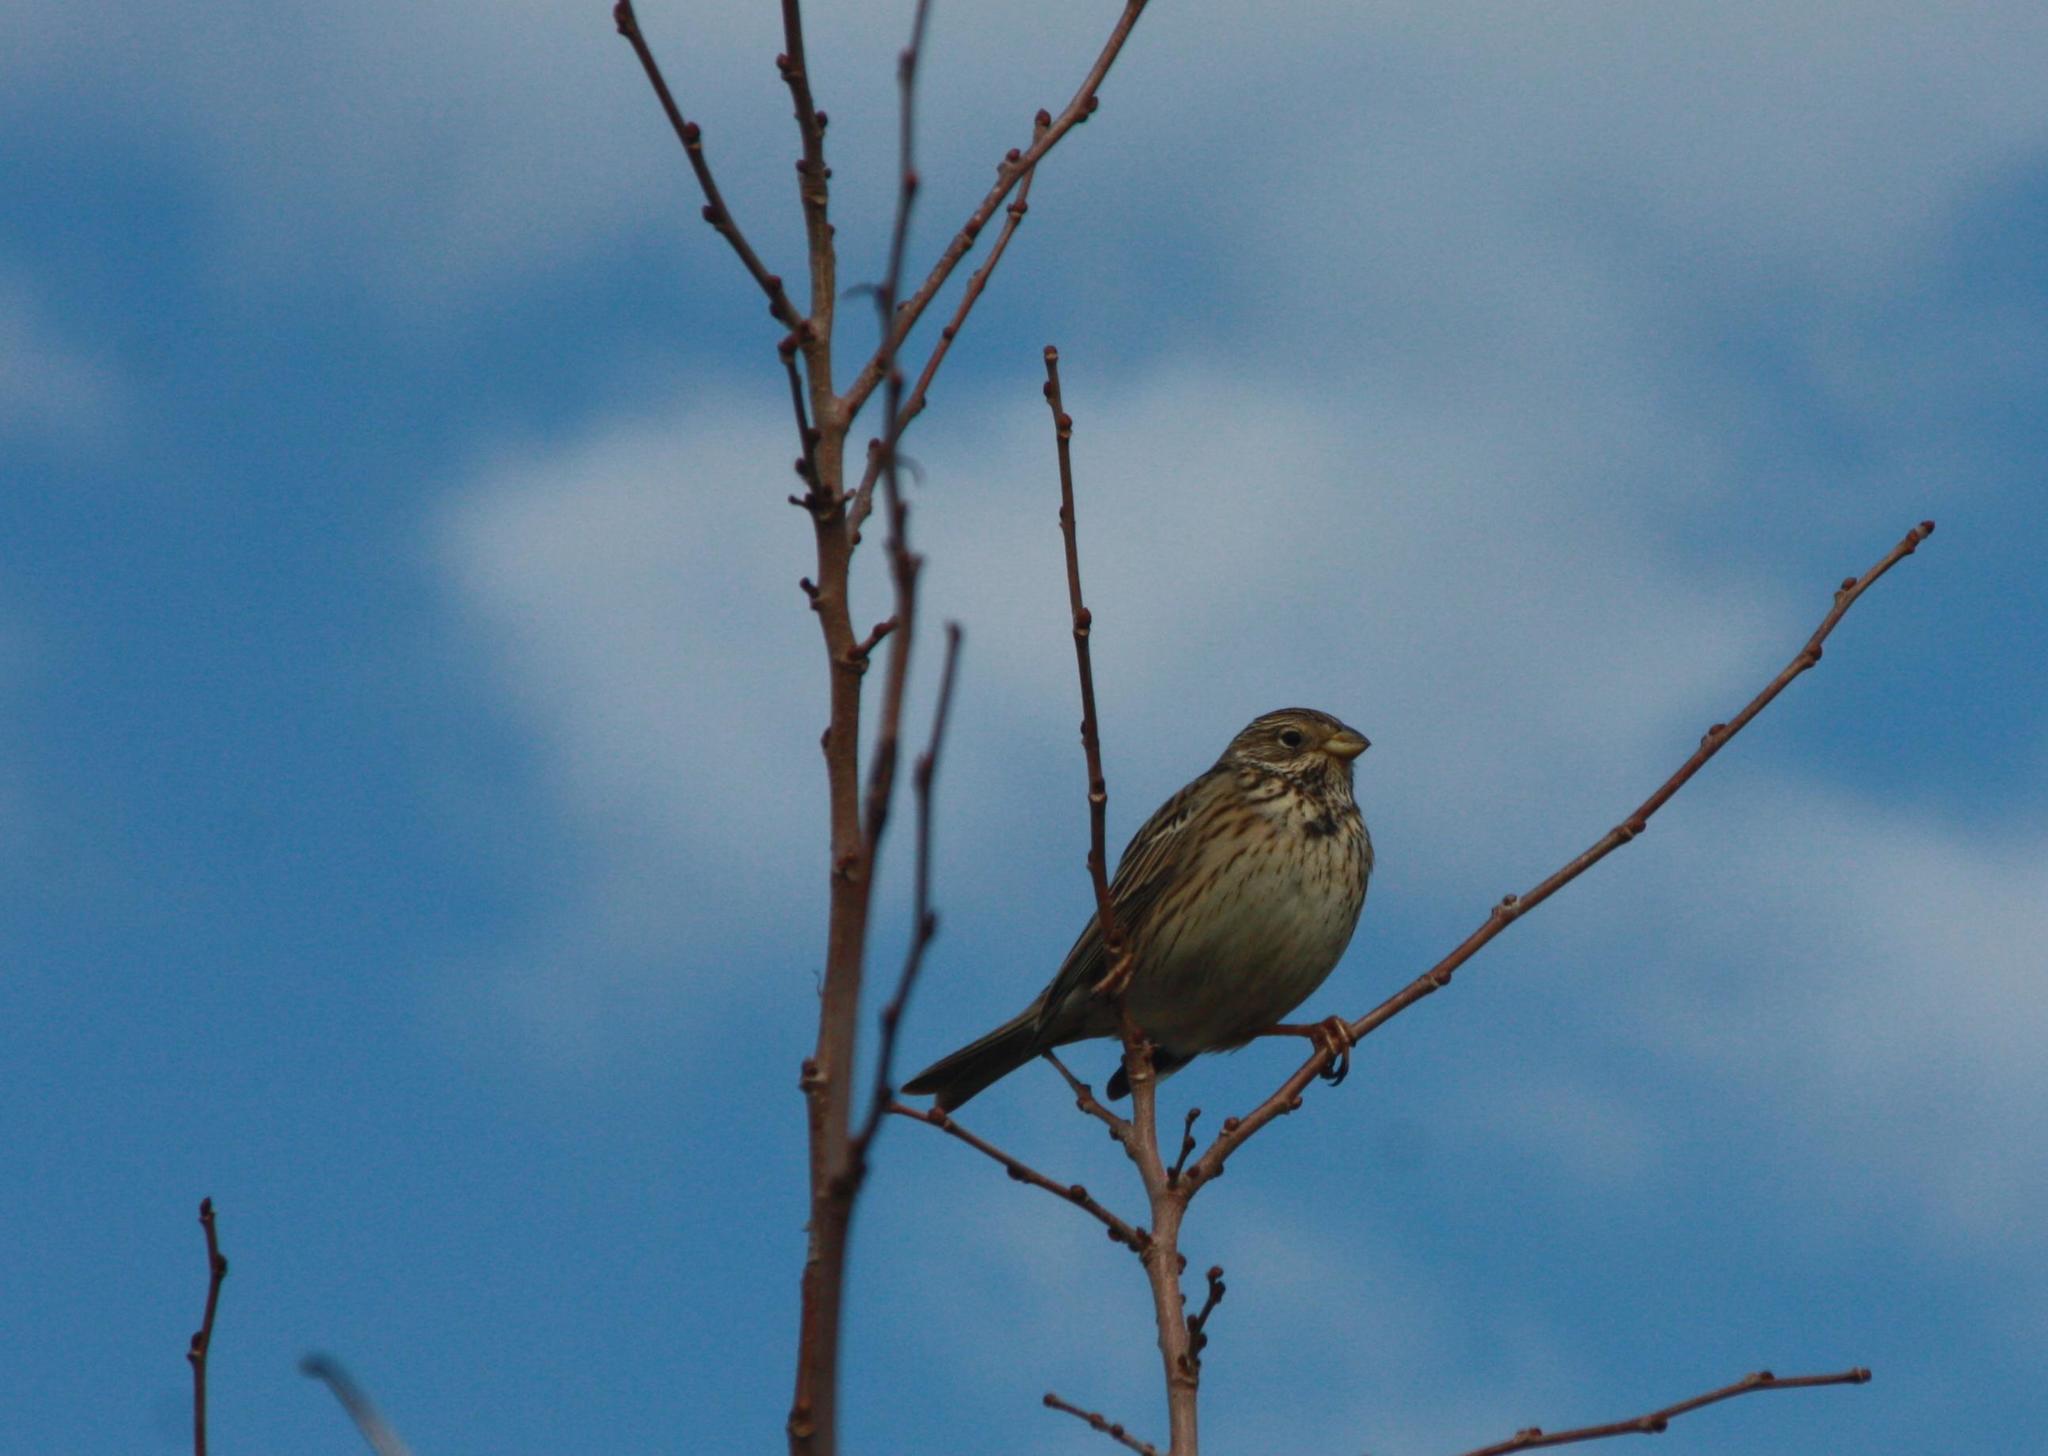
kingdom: Animalia
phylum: Chordata
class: Aves
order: Passeriformes
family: Emberizidae
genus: Emberiza
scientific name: Emberiza calandra
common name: Corn bunting
